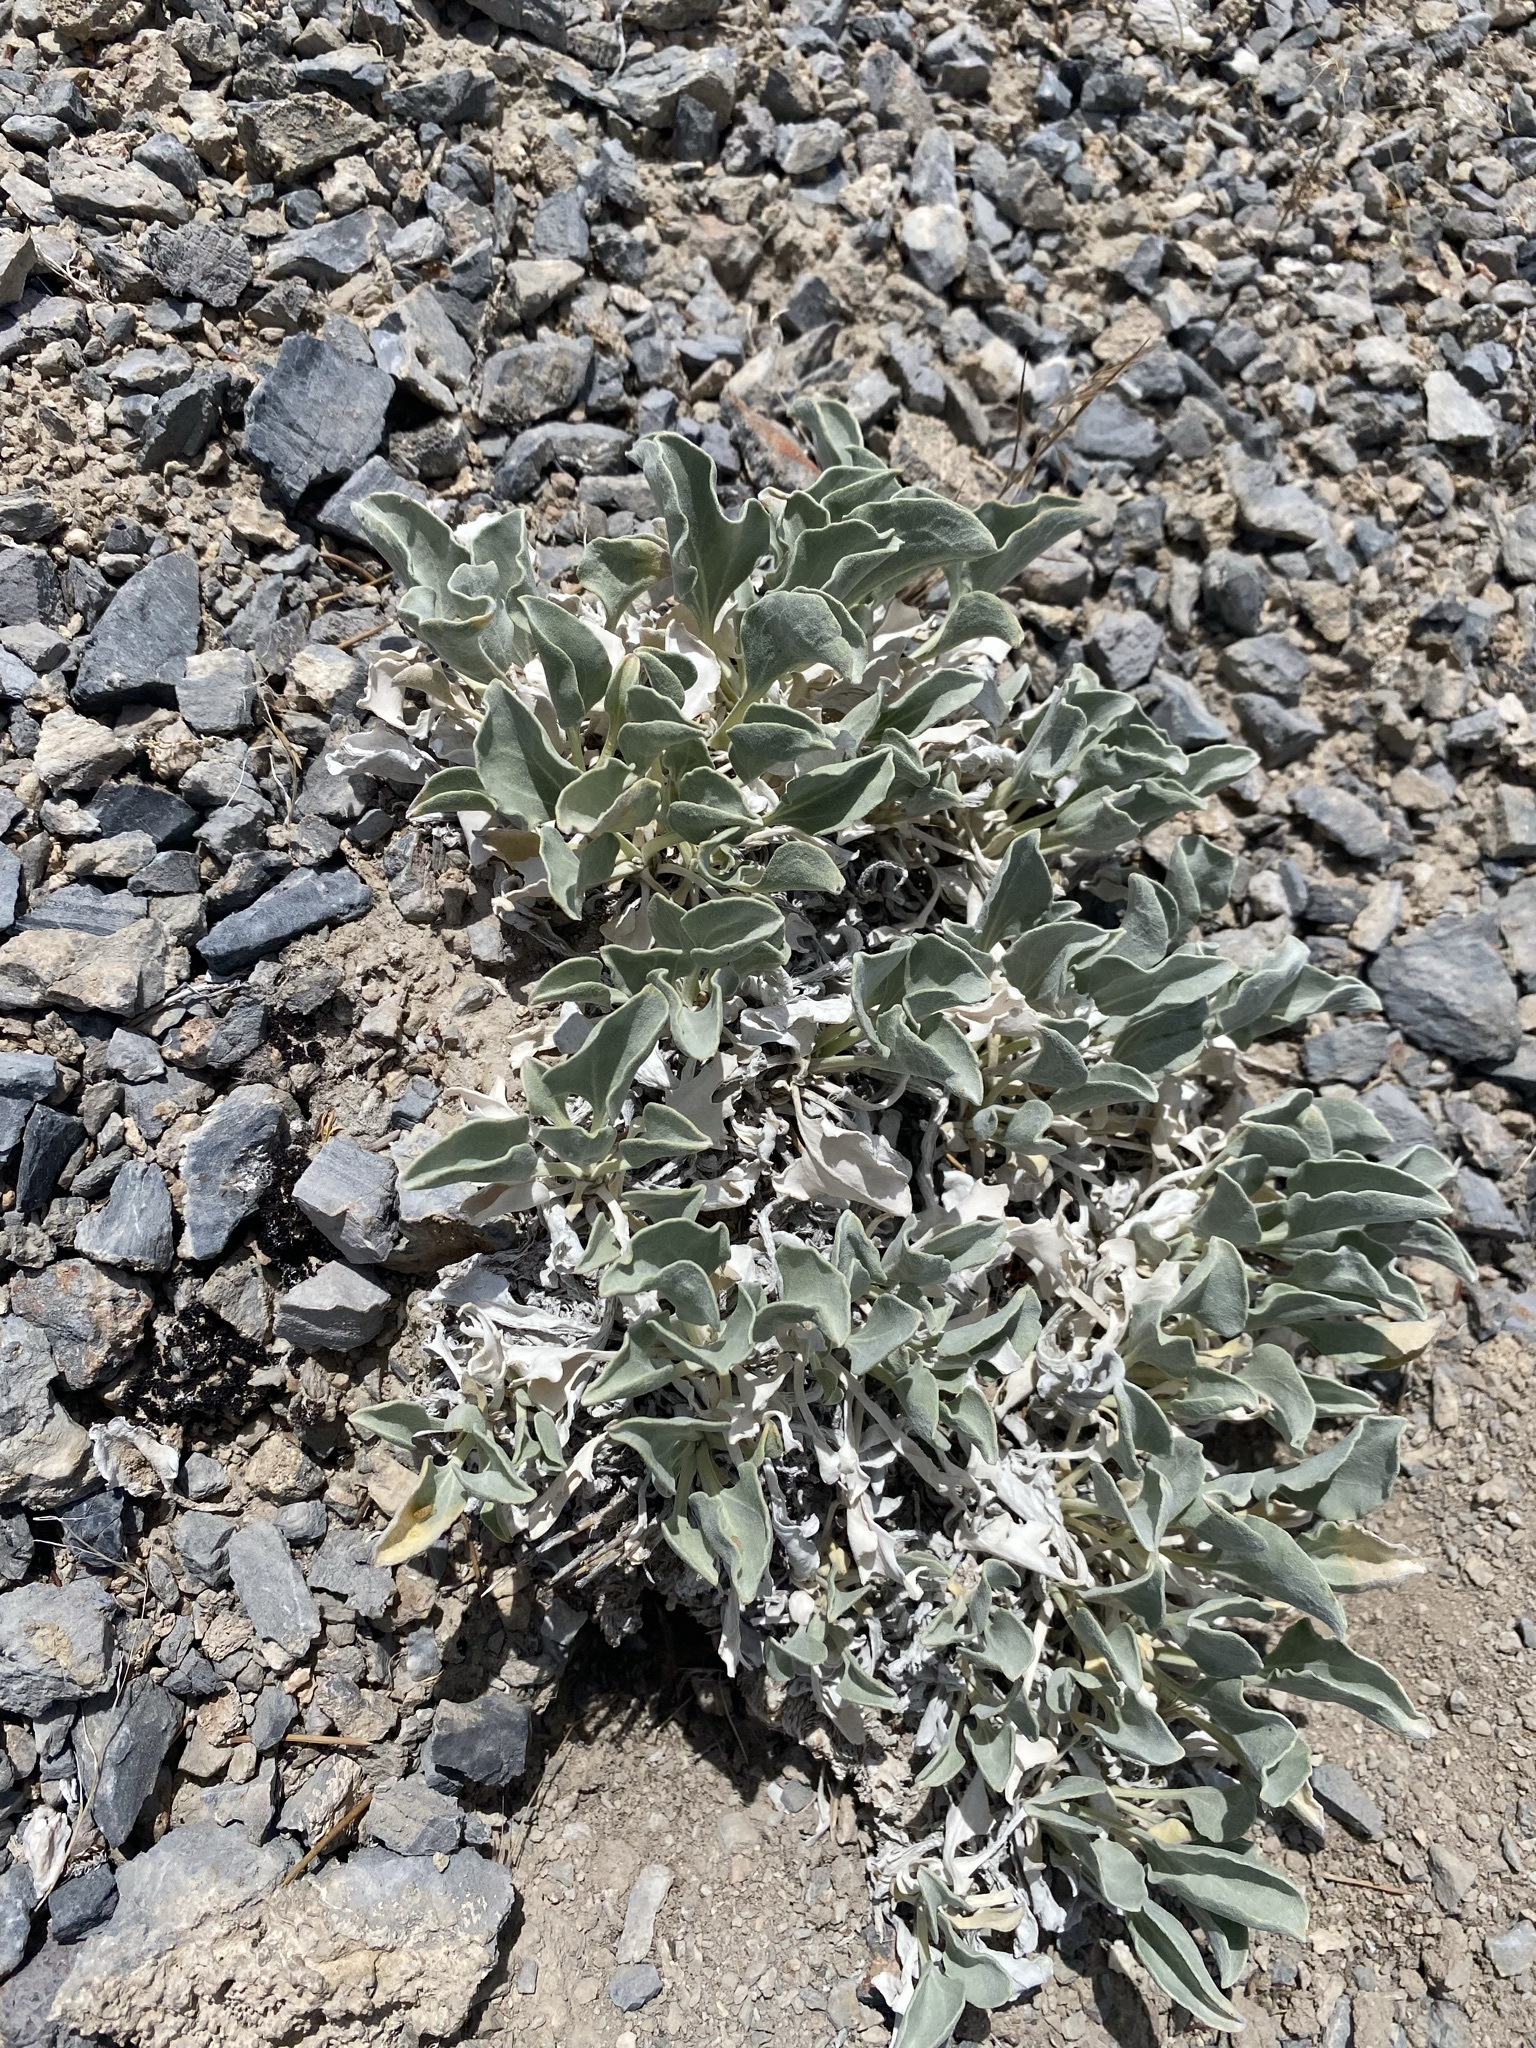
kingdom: Plantae
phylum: Tracheophyta
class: Magnoliopsida
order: Asterales
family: Asteraceae
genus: Enceliopsis
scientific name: Enceliopsis nudicaulis
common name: Naked-stem daisy
